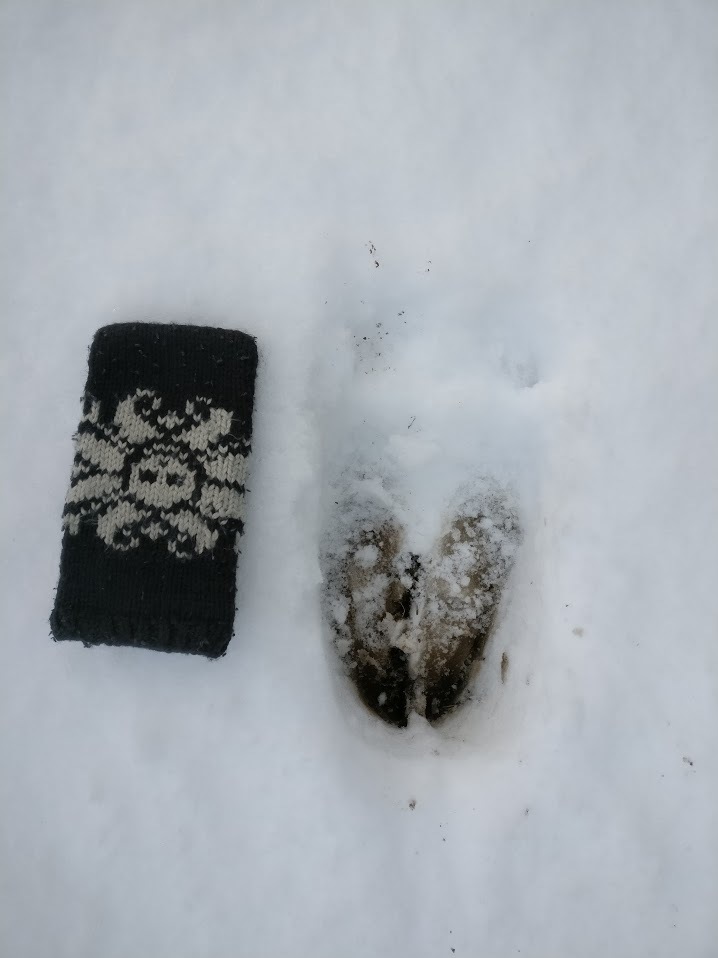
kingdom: Animalia
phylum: Chordata
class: Mammalia
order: Artiodactyla
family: Cervidae
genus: Alces
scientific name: Alces alces
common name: Moose
